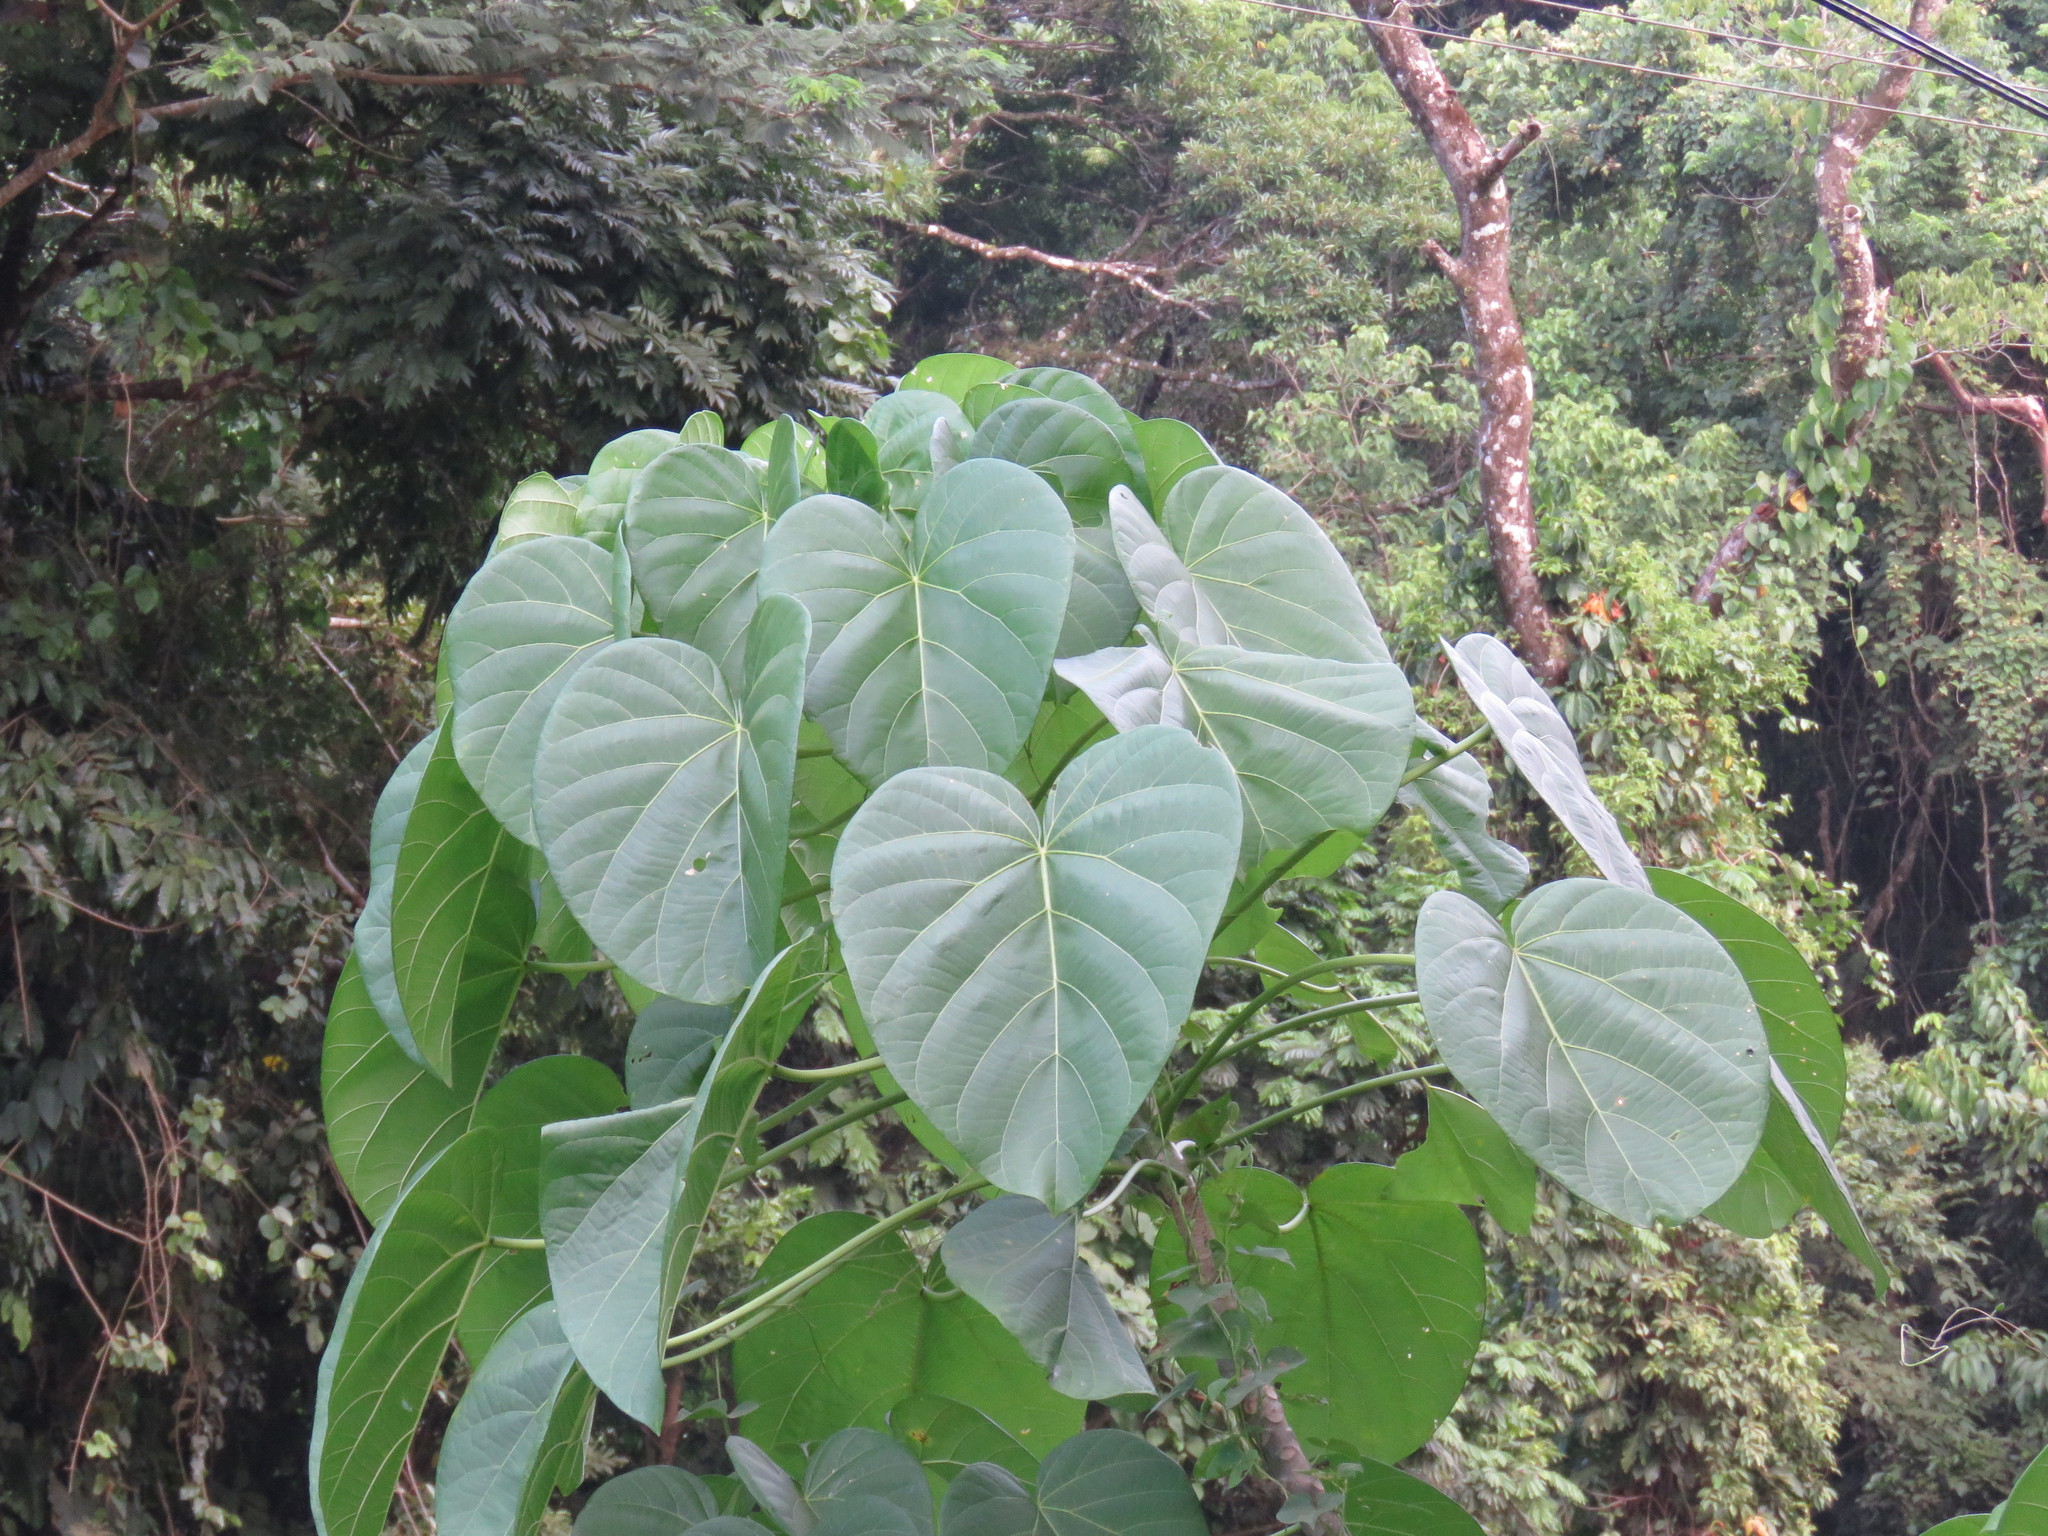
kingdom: Plantae
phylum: Tracheophyta
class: Magnoliopsida
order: Malpighiales
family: Euphorbiaceae
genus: Omphalea
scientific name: Omphalea oleifera
